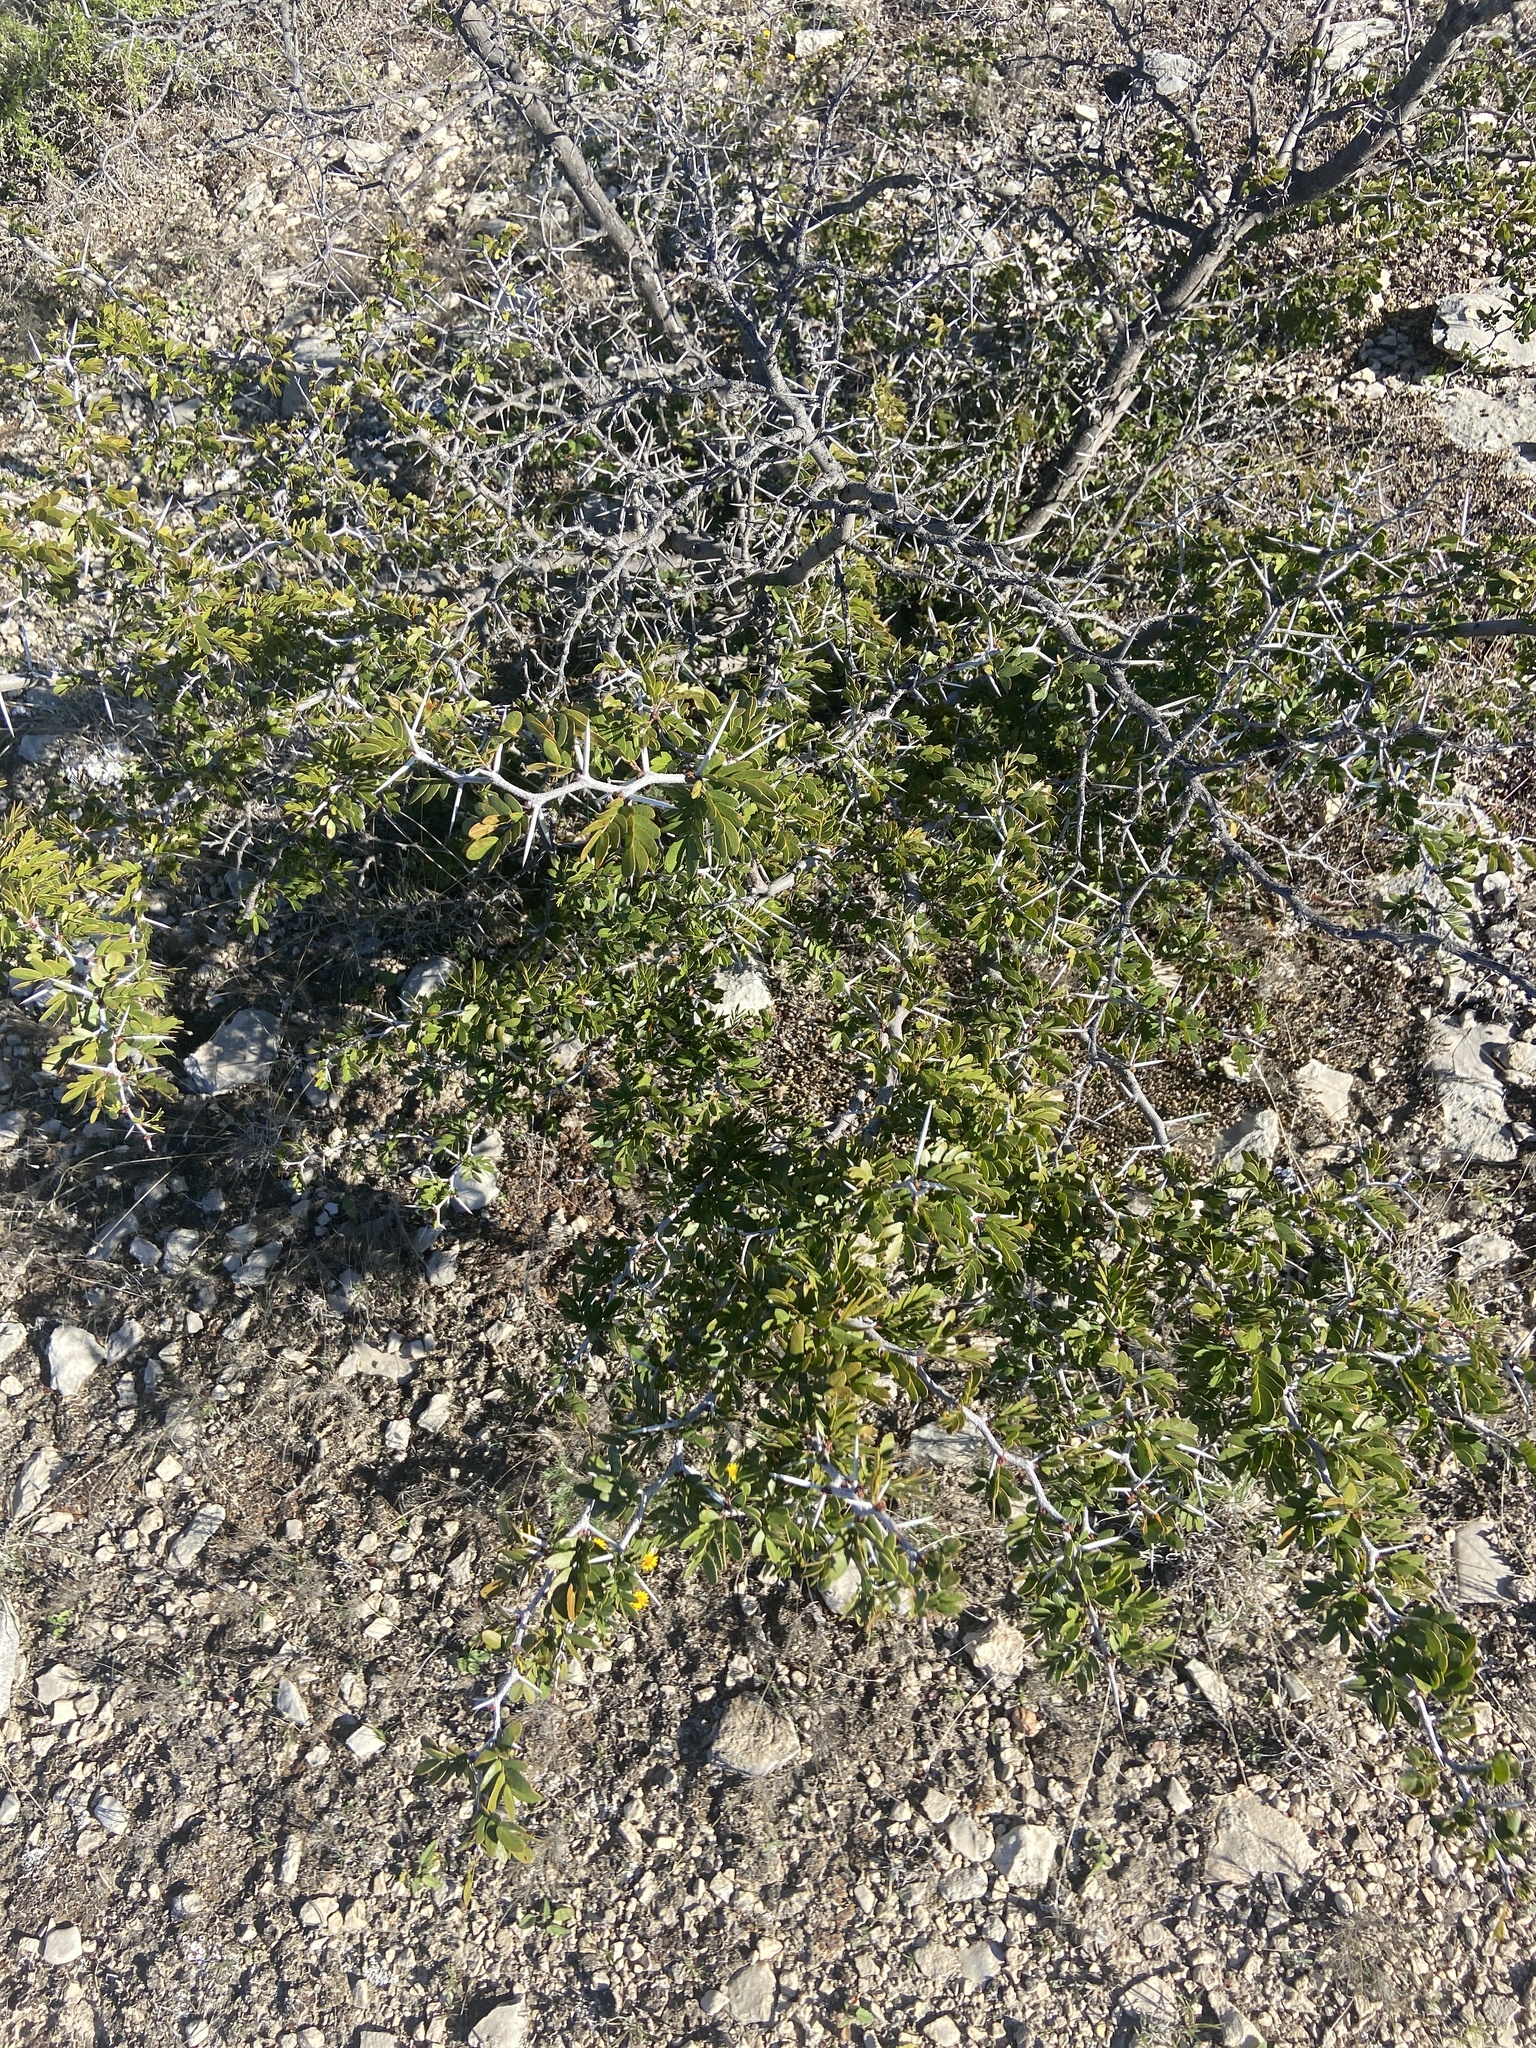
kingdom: Plantae
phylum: Tracheophyta
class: Magnoliopsida
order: Fabales
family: Fabaceae
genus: Vachellia
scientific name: Vachellia rigidula
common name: Blackbrush
